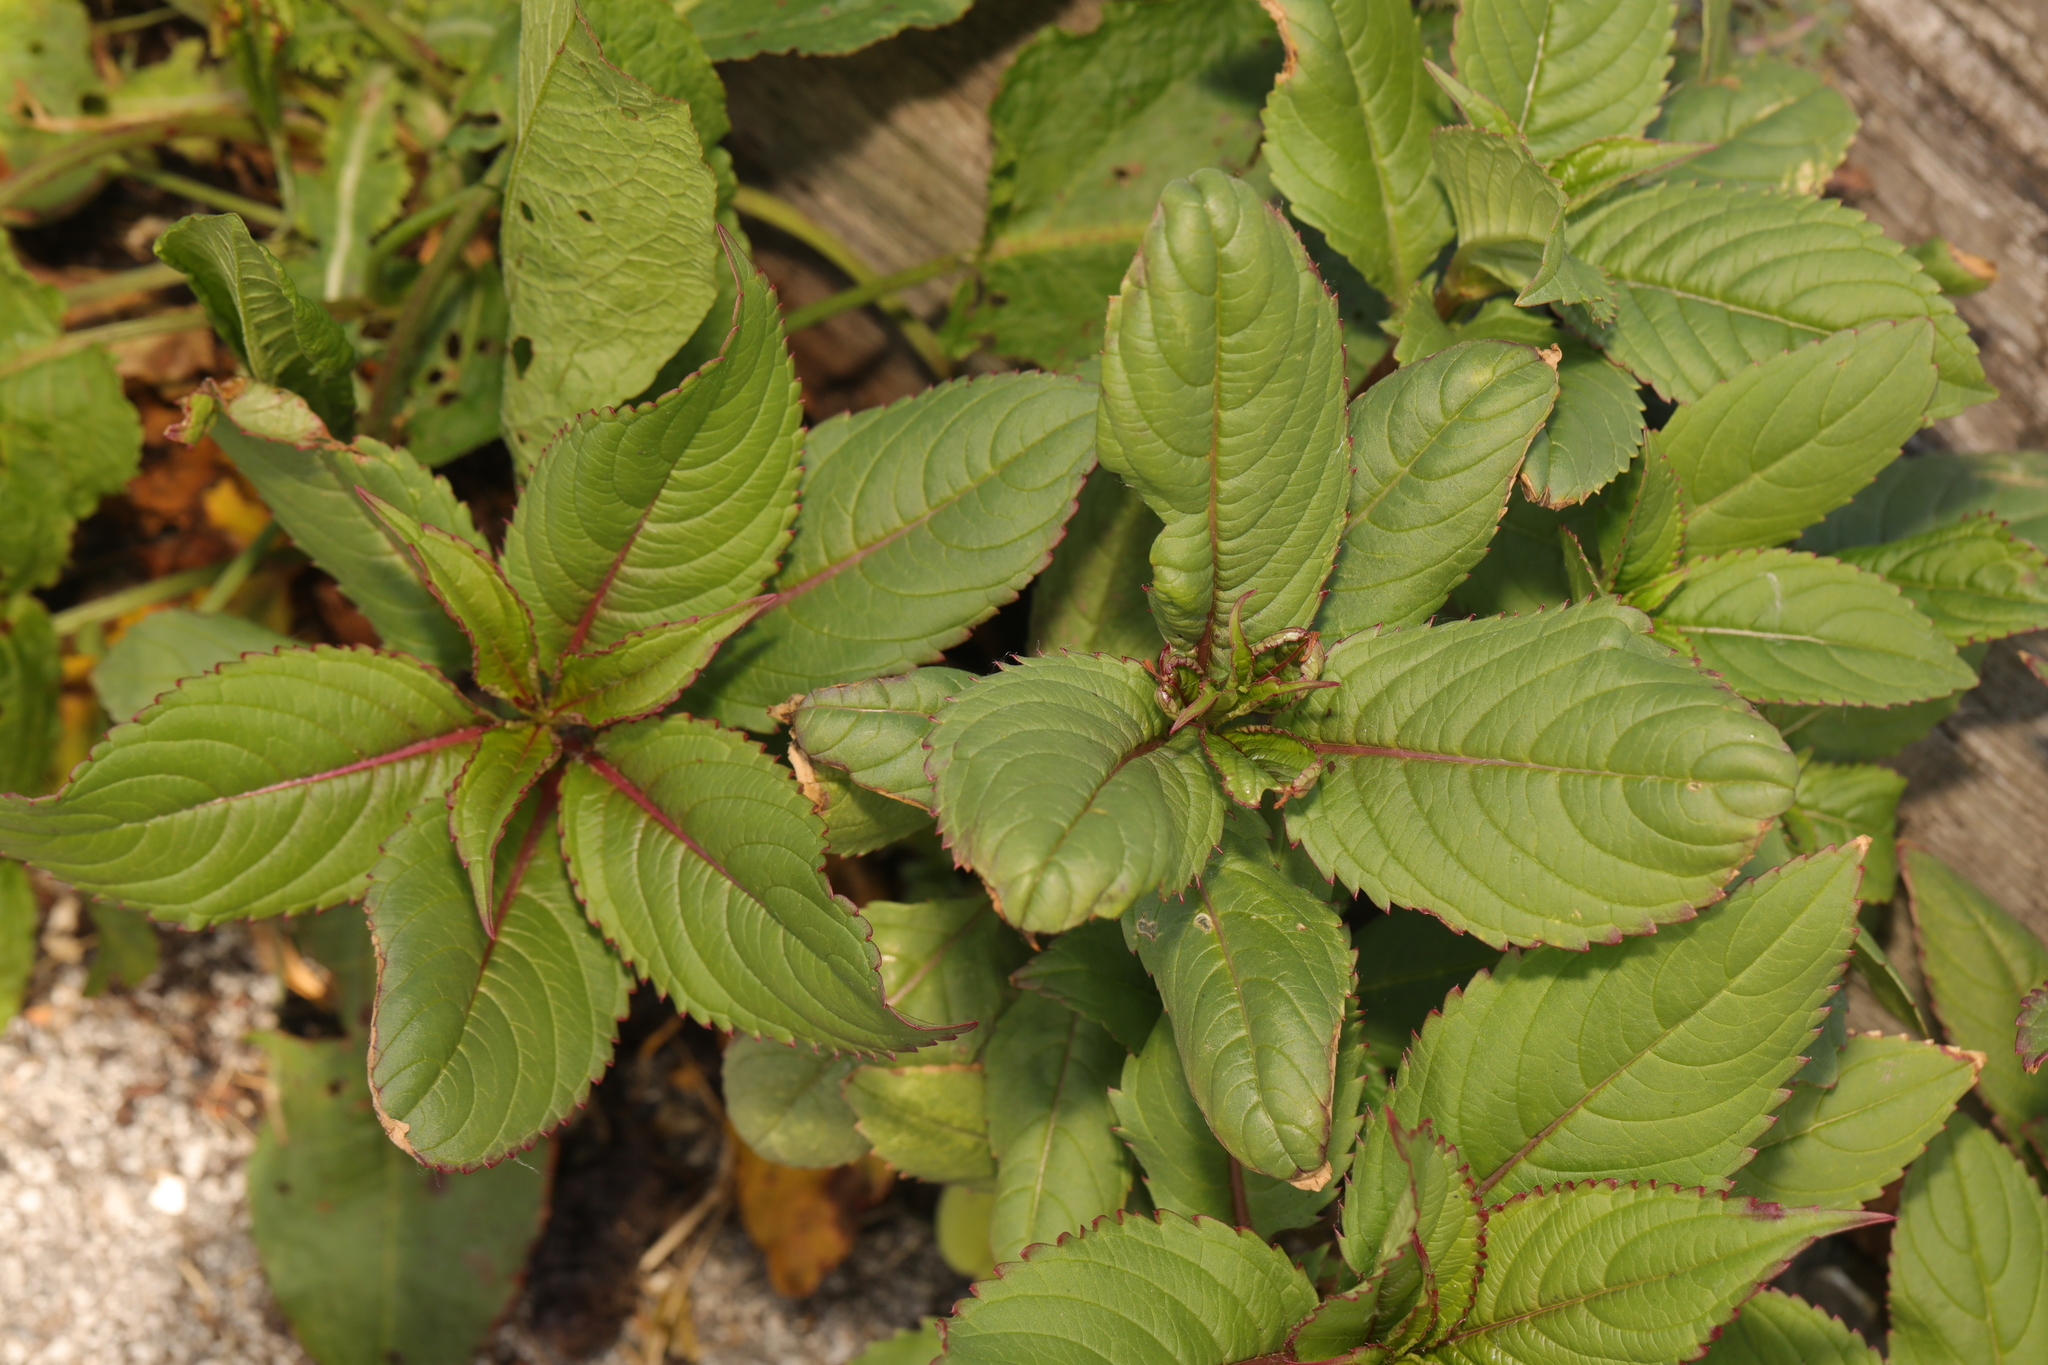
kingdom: Plantae
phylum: Tracheophyta
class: Magnoliopsida
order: Ericales
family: Balsaminaceae
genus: Impatiens
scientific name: Impatiens glandulifera
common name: Himalayan balsam
